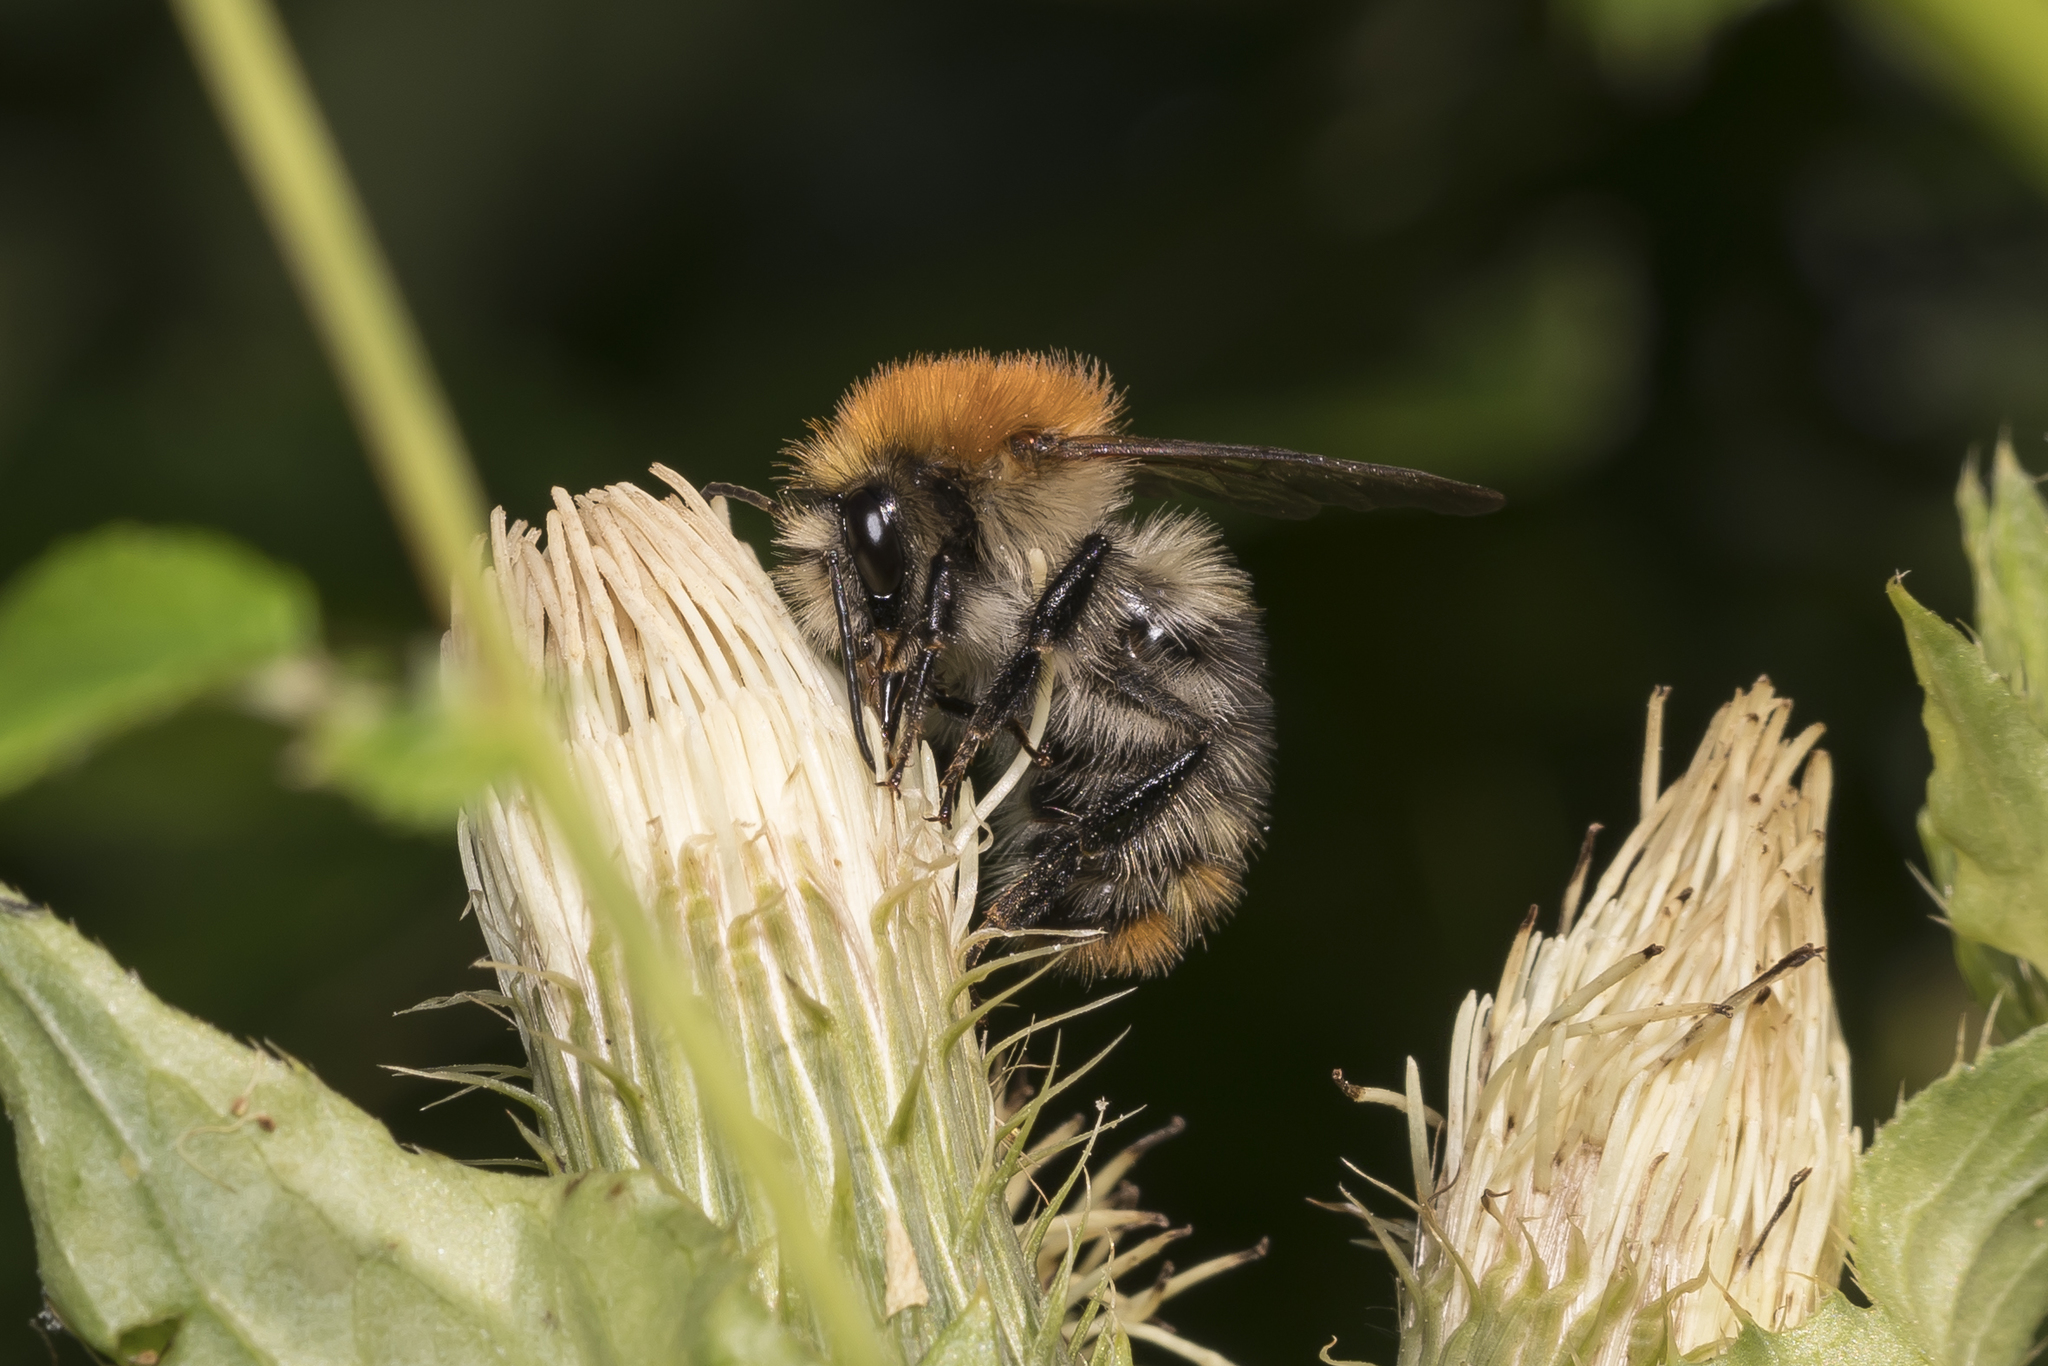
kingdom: Animalia
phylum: Arthropoda
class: Insecta
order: Hymenoptera
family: Apidae
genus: Bombus
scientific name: Bombus pascuorum
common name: Common carder bee
